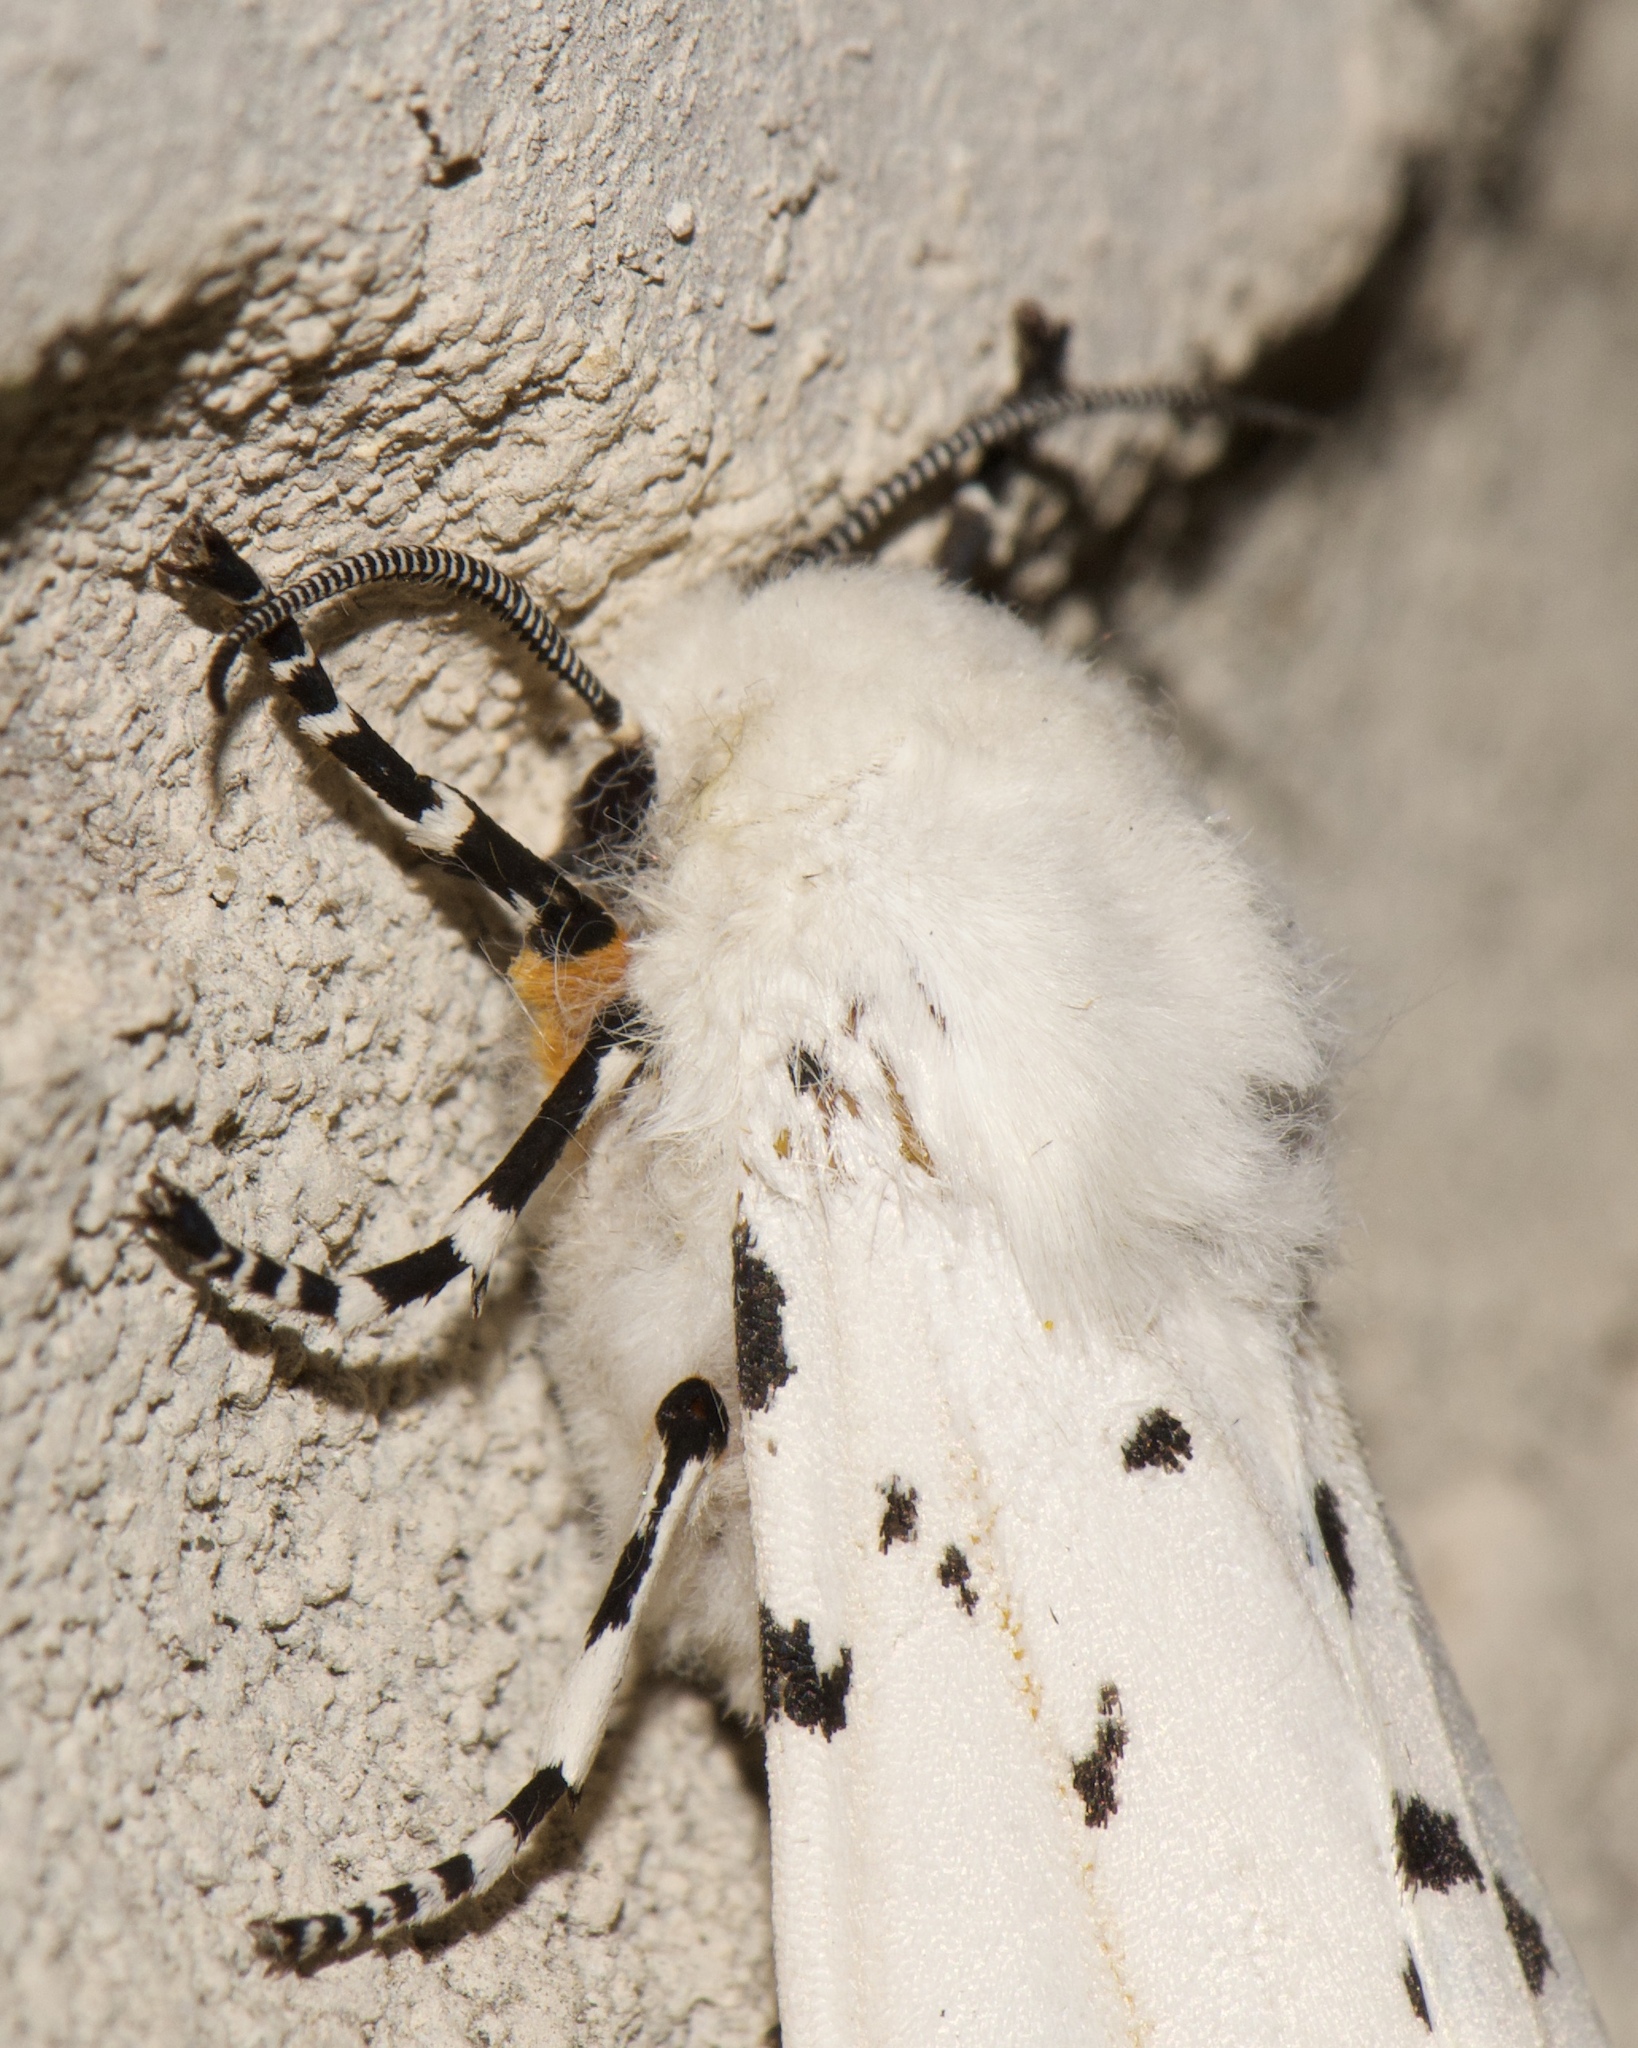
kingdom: Animalia
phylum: Arthropoda
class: Insecta
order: Lepidoptera
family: Erebidae
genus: Estigmene
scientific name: Estigmene acrea
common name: Salt marsh moth
